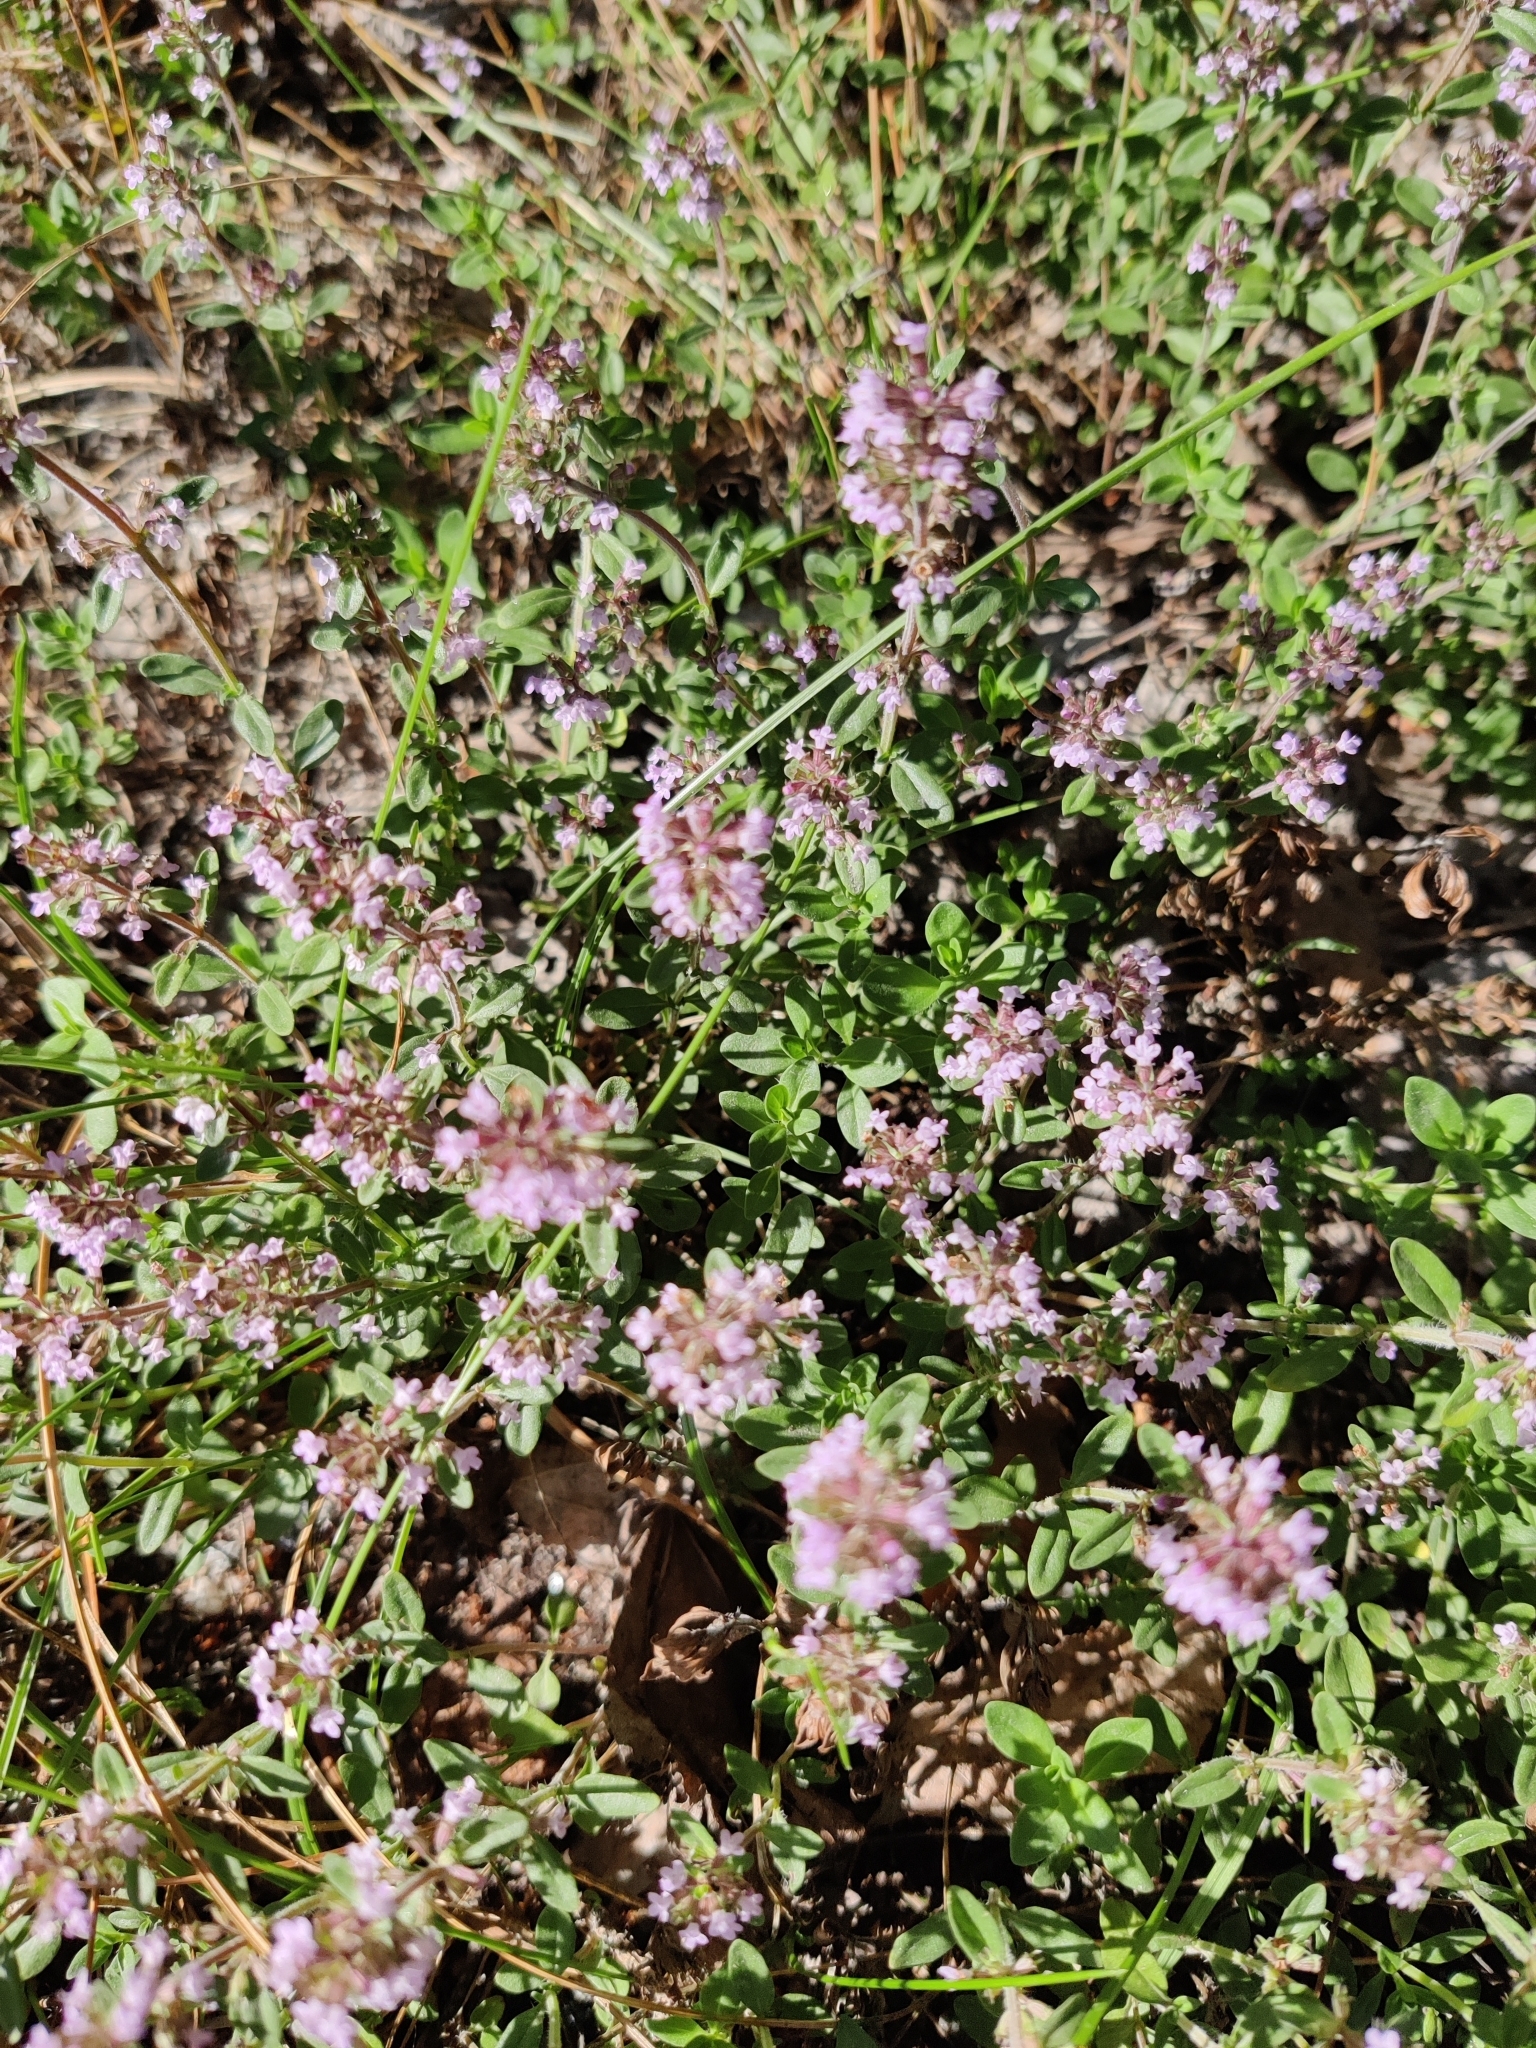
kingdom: Plantae
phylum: Tracheophyta
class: Magnoliopsida
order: Lamiales
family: Lamiaceae
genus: Thymus
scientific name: Thymus serpyllum
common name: Breckland thyme
